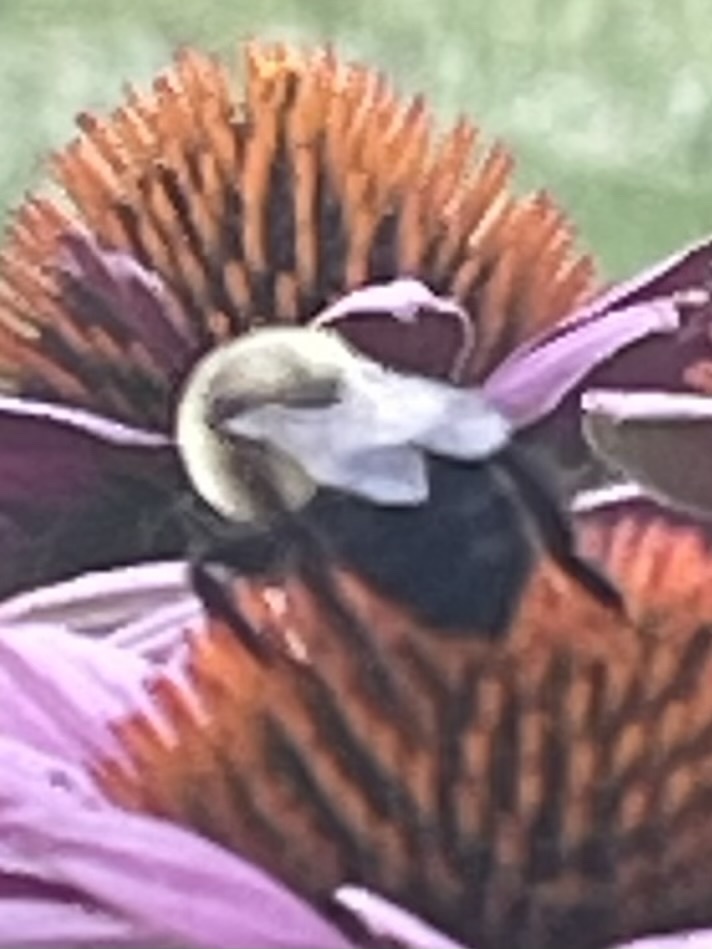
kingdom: Animalia
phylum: Arthropoda
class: Insecta
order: Hymenoptera
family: Apidae
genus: Bombus
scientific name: Bombus impatiens
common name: Common eastern bumble bee
